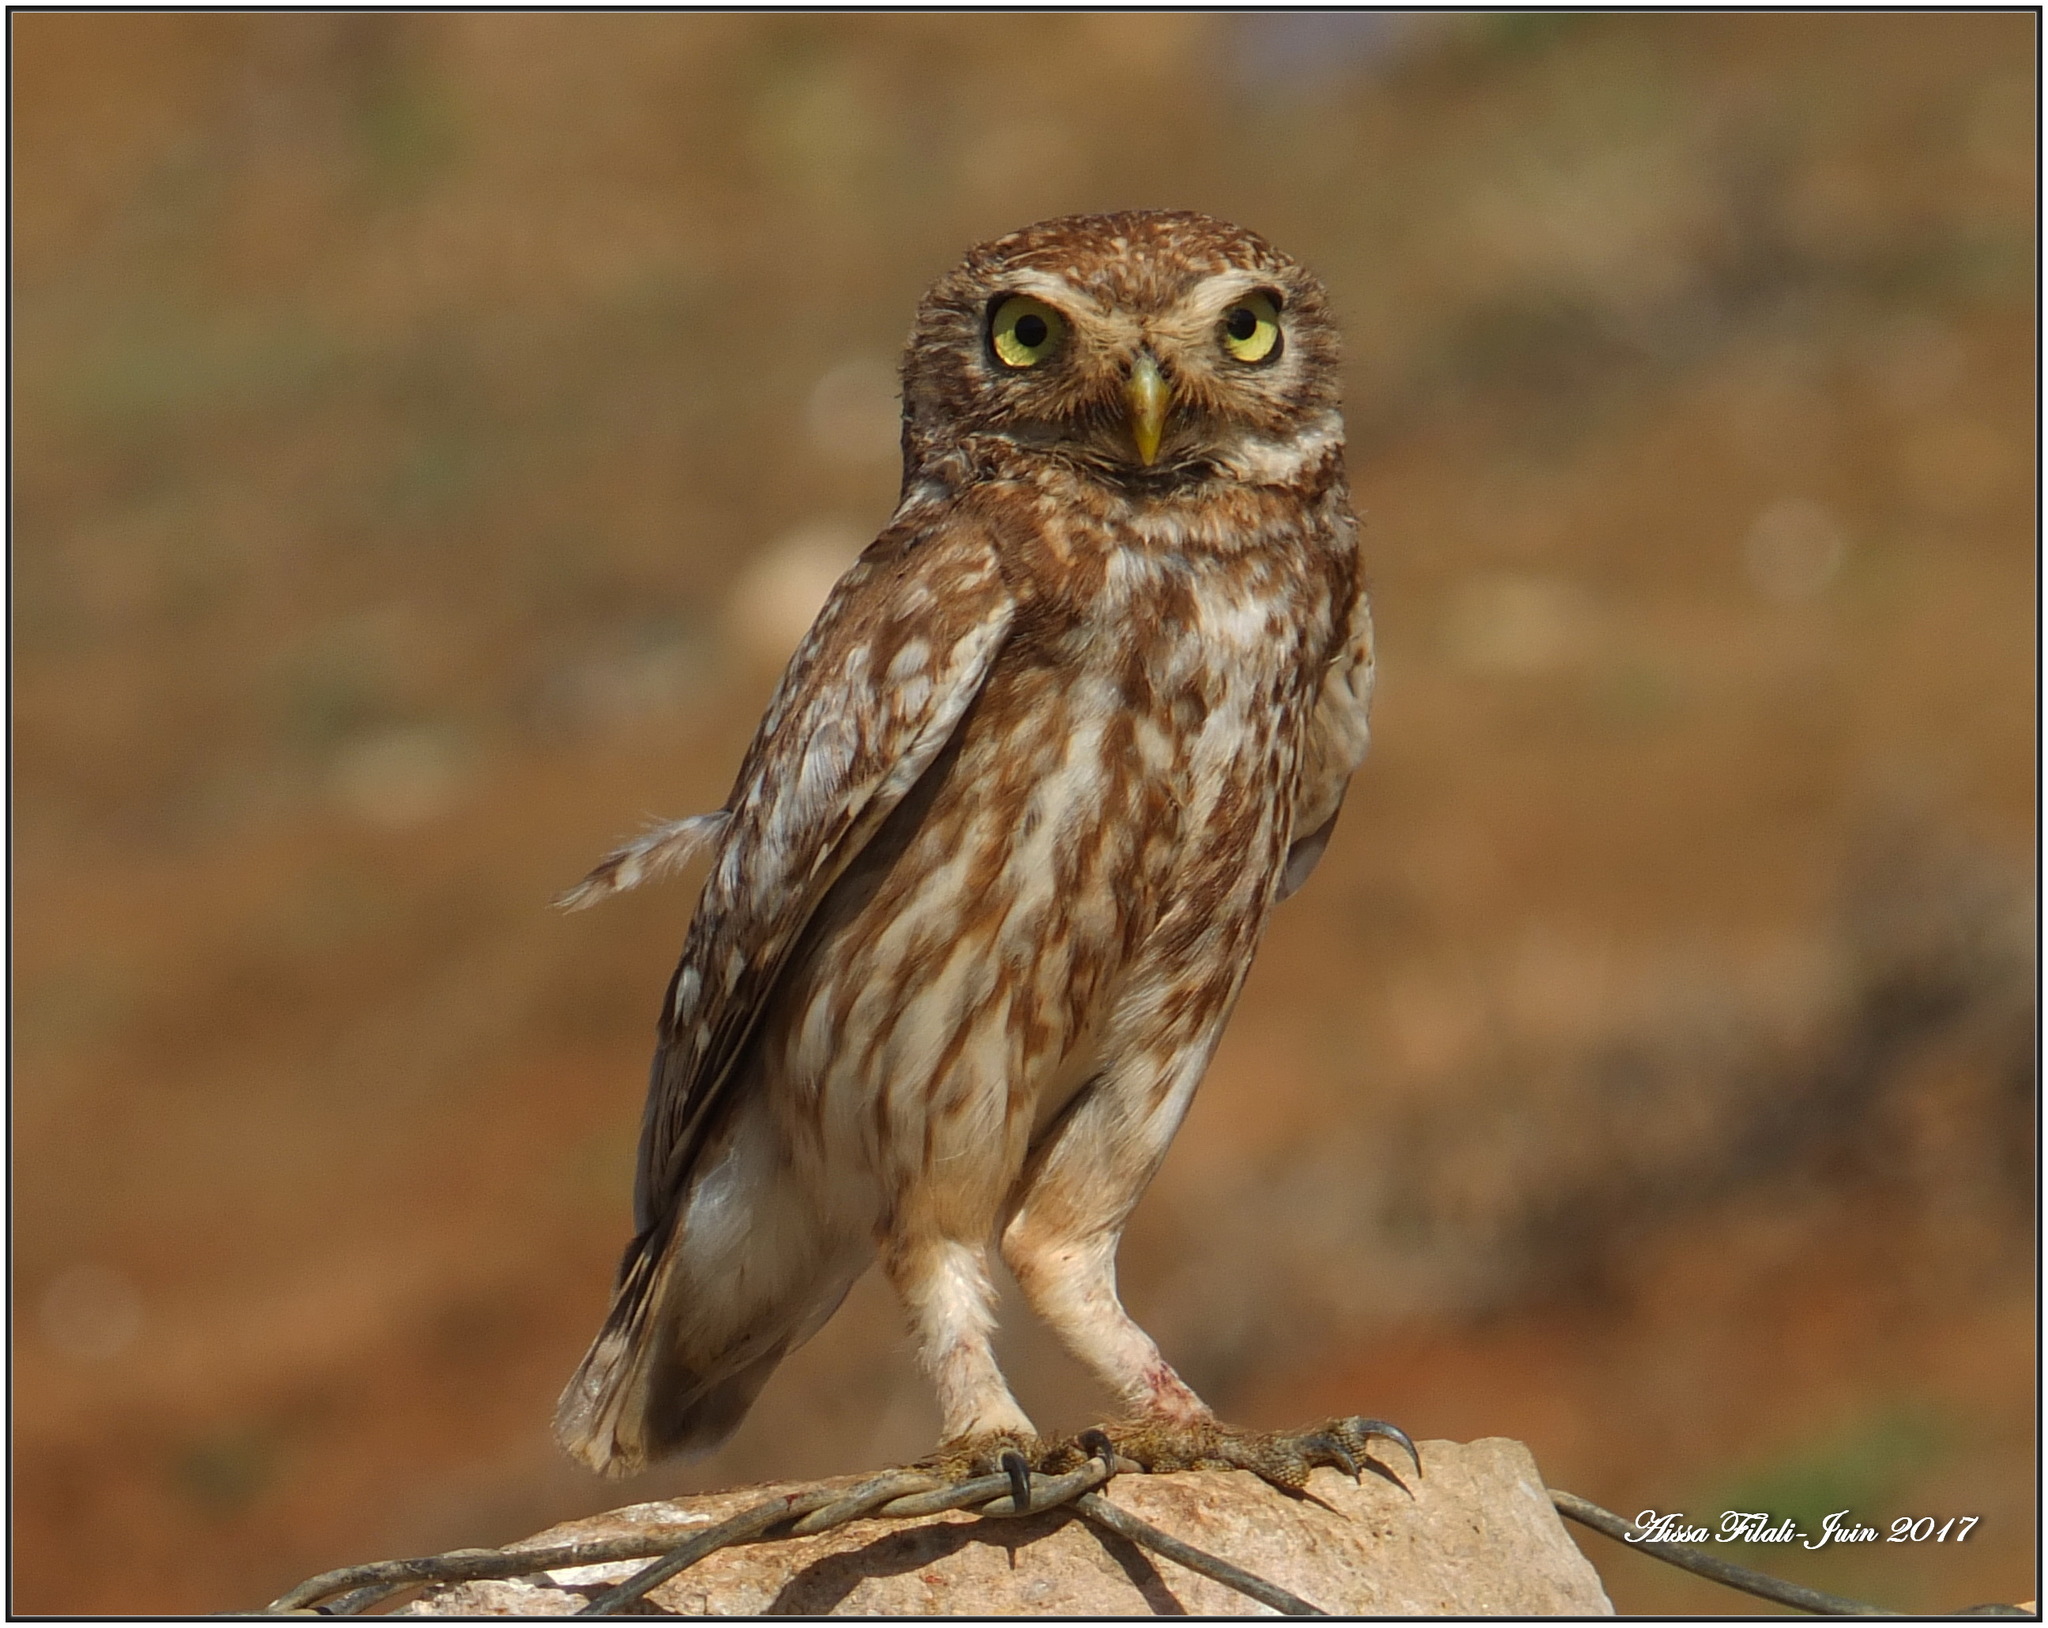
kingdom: Animalia
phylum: Chordata
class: Aves
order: Strigiformes
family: Strigidae
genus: Athene
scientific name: Athene noctua
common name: Little owl
